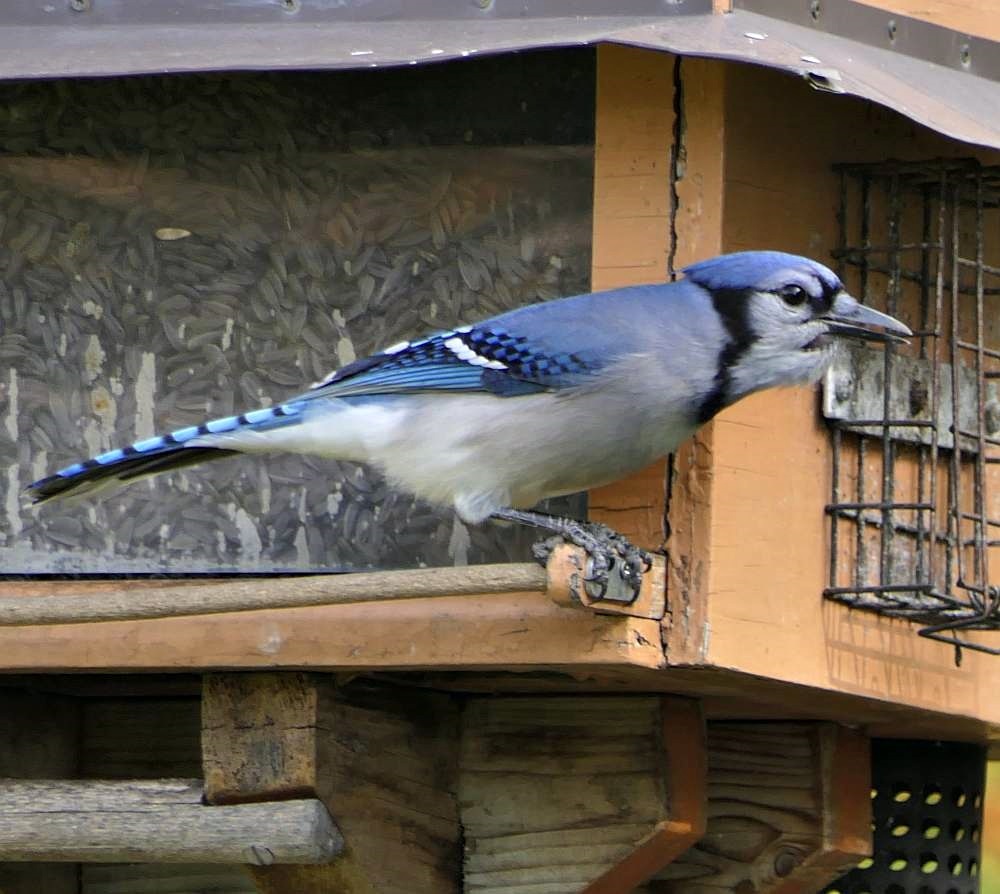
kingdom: Animalia
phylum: Chordata
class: Aves
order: Passeriformes
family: Corvidae
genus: Cyanocitta
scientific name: Cyanocitta cristata
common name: Blue jay
